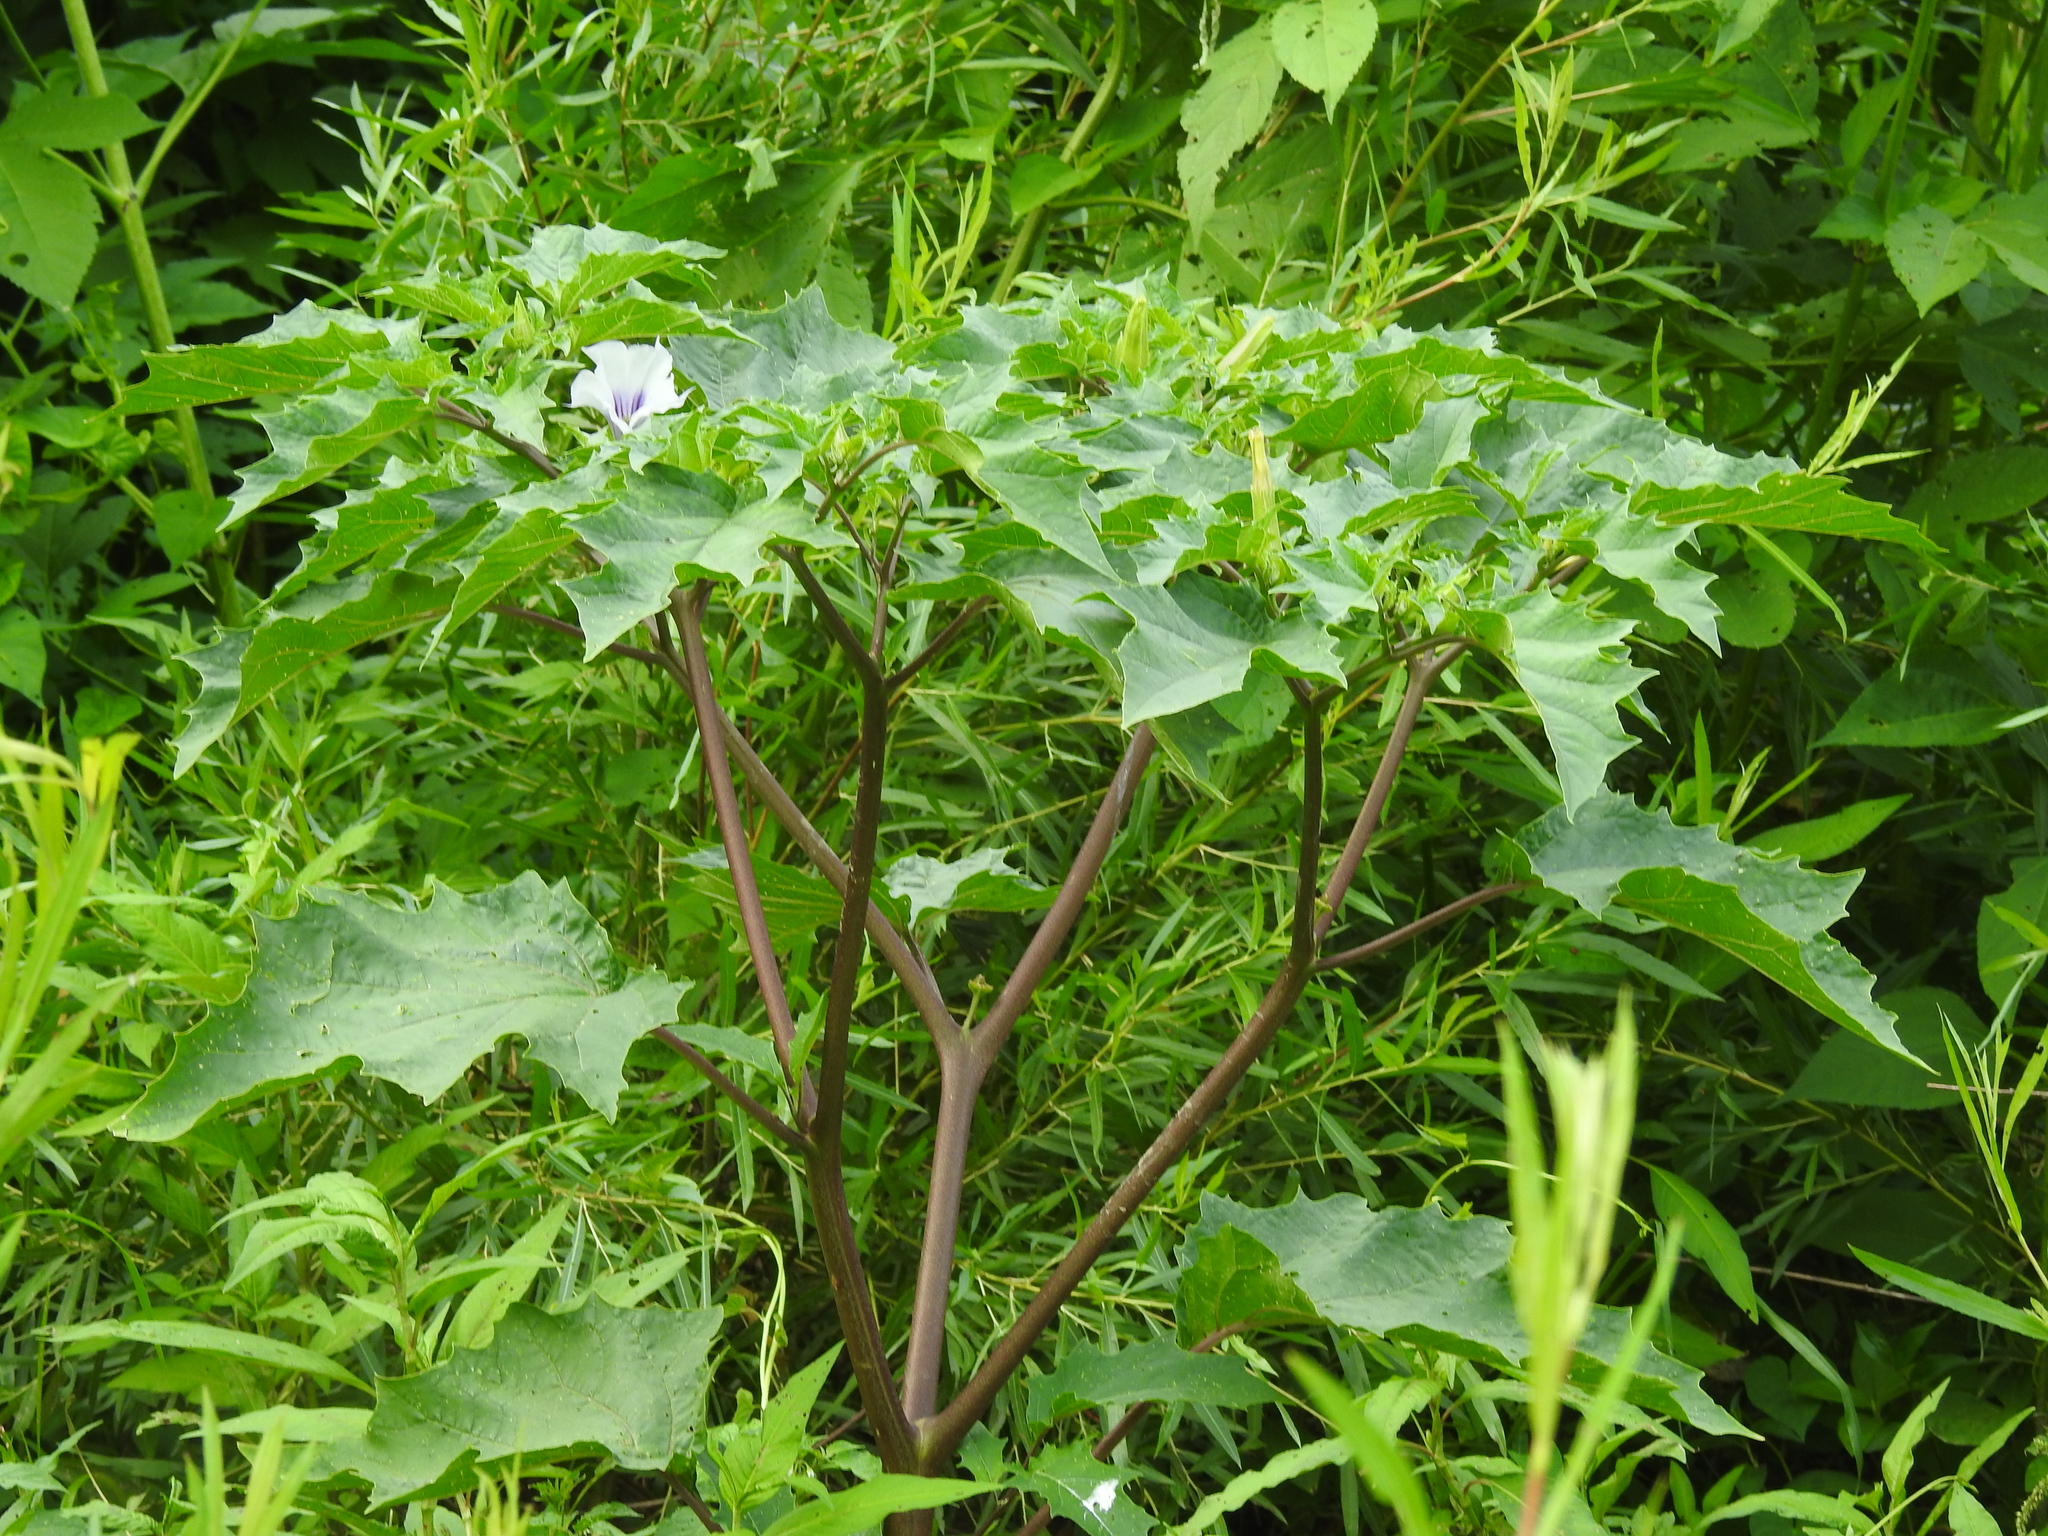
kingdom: Plantae
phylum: Tracheophyta
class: Magnoliopsida
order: Solanales
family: Solanaceae
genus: Datura
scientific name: Datura stramonium
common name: Thorn-apple
